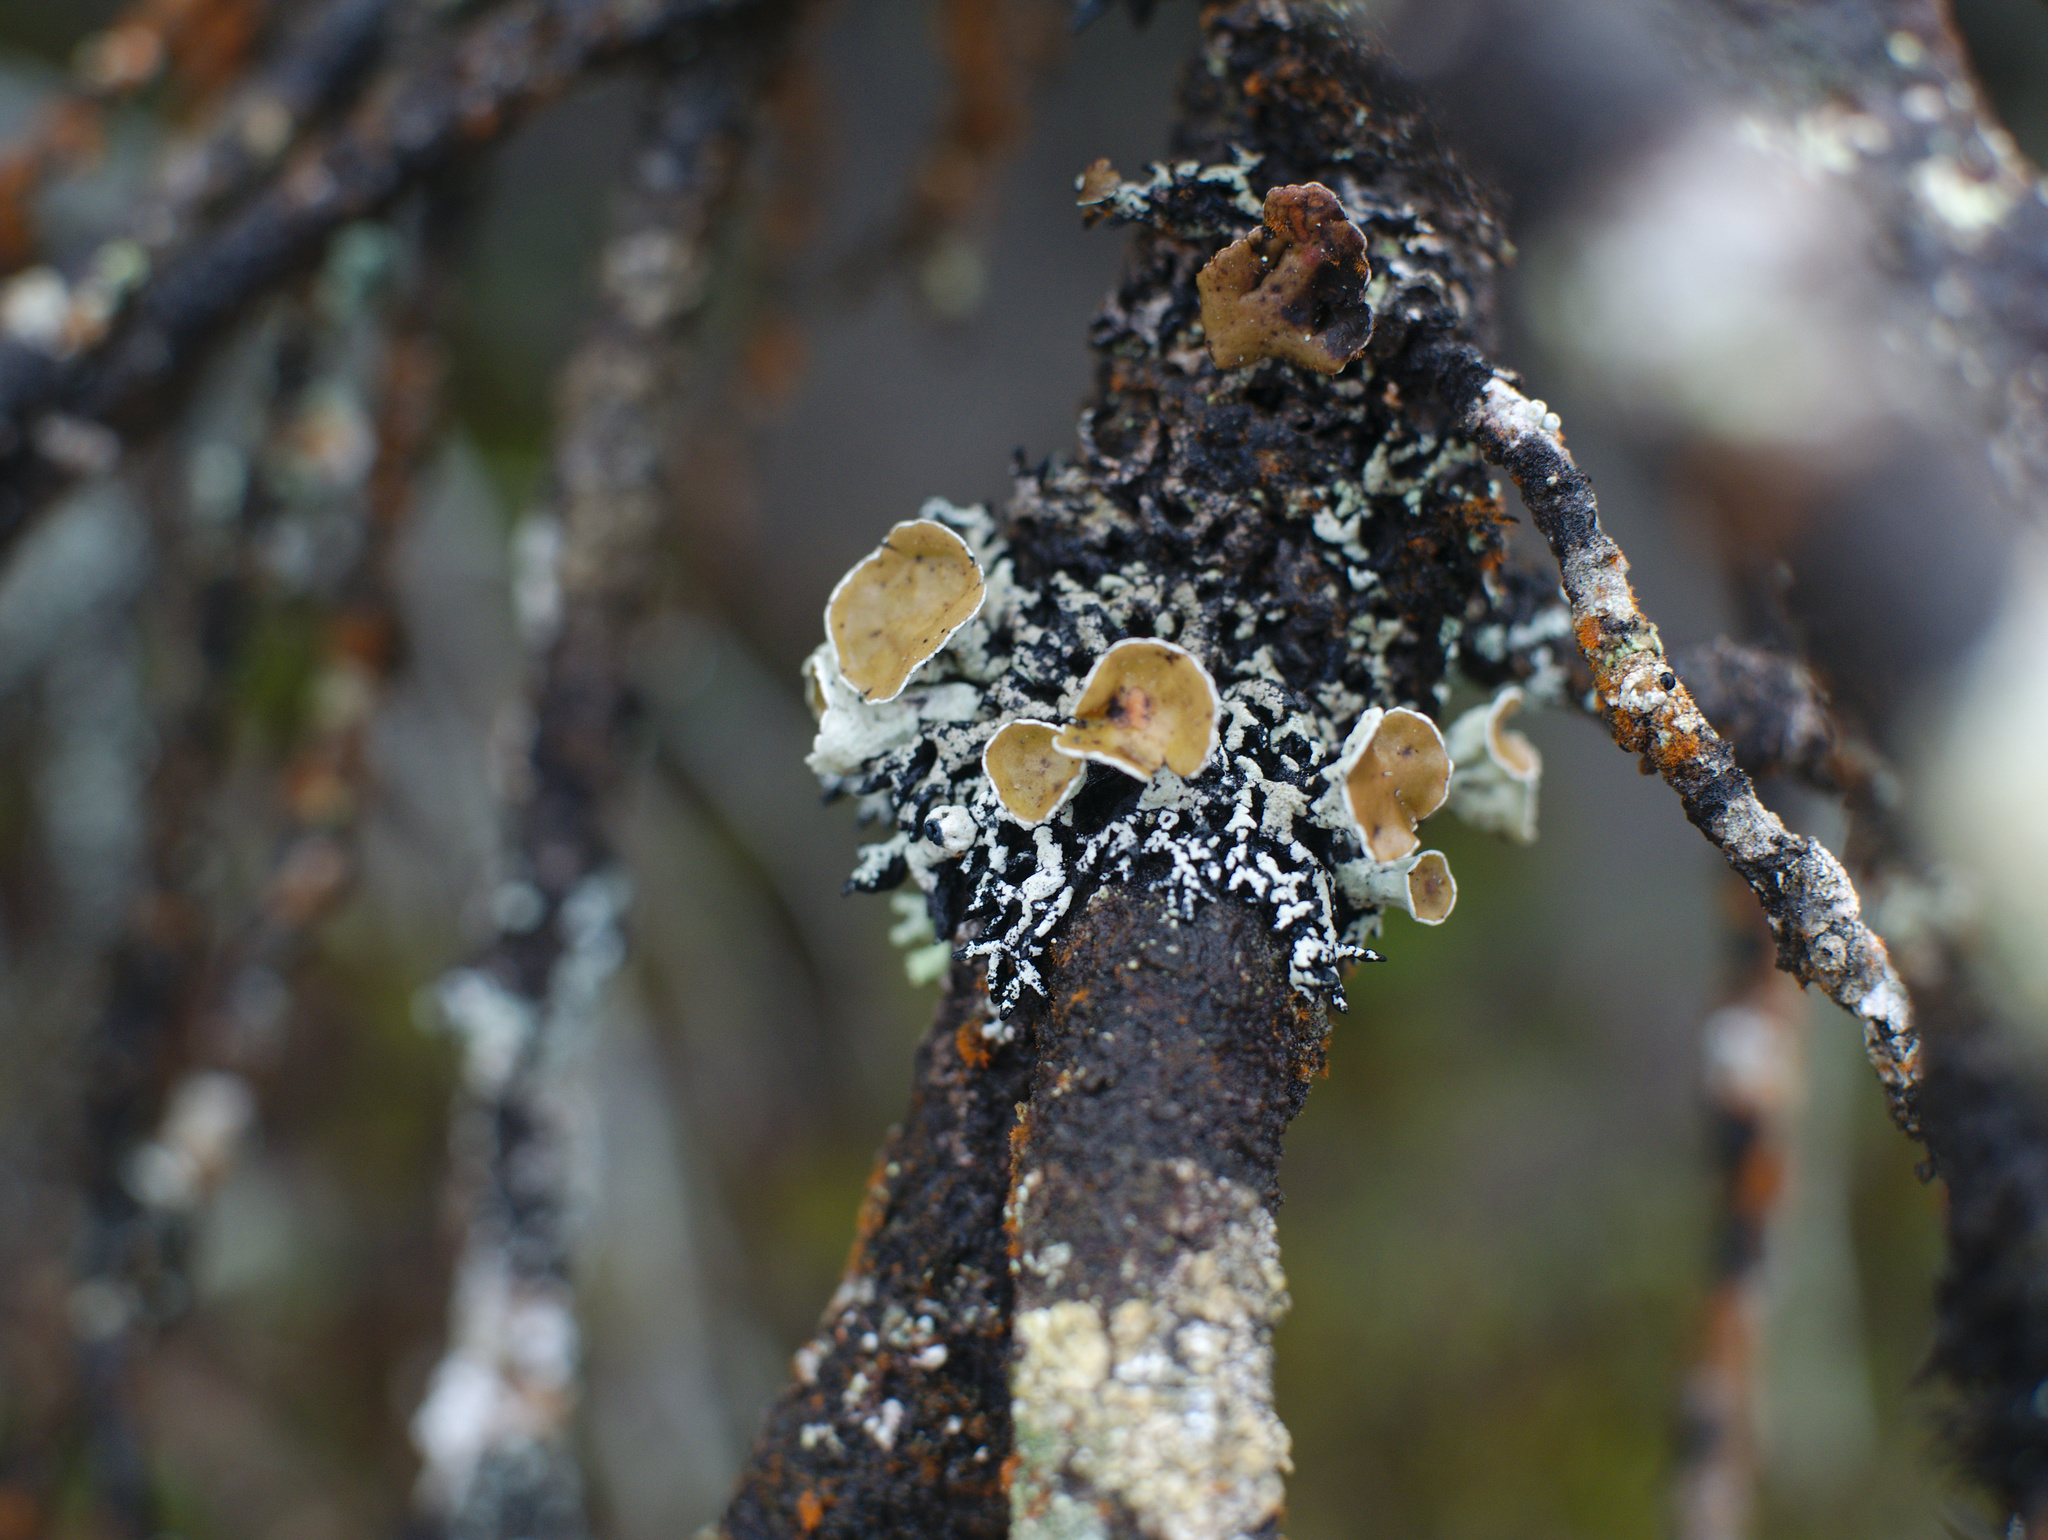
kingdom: Fungi
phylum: Ascomycota
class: Lecanoromycetes
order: Lecanorales
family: Parmeliaceae
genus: Hypogymnia
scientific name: Hypogymnia lugubris
